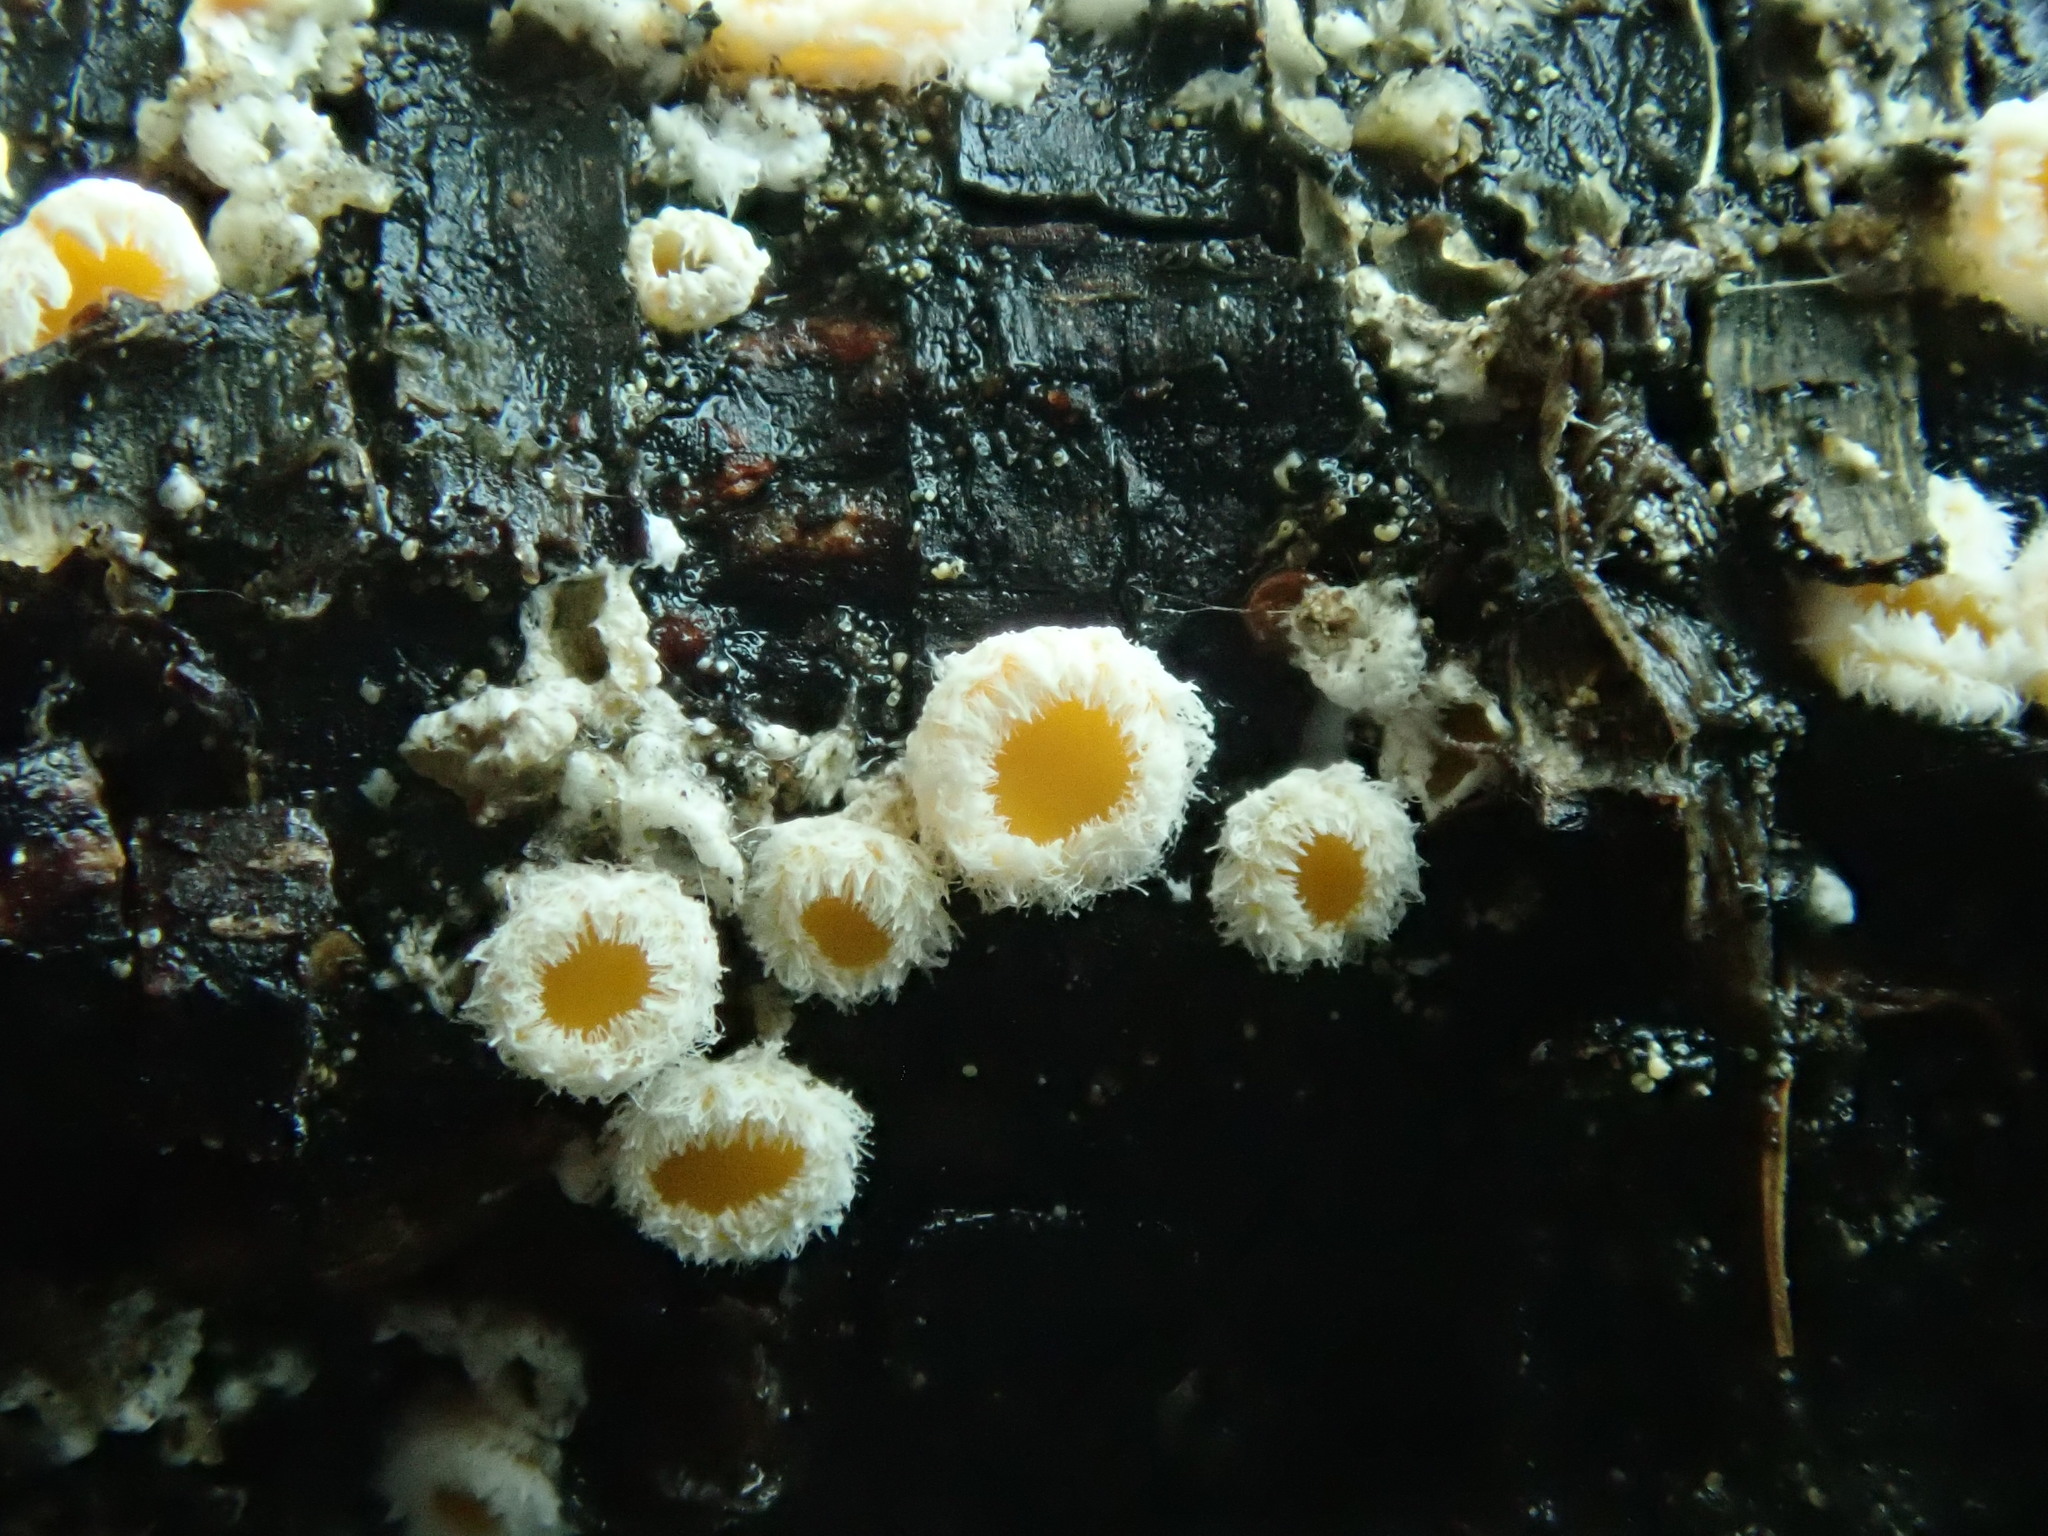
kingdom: Fungi
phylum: Ascomycota
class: Leotiomycetes
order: Helotiales
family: Lachnaceae
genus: Capitotricha
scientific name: Capitotricha bicolor
